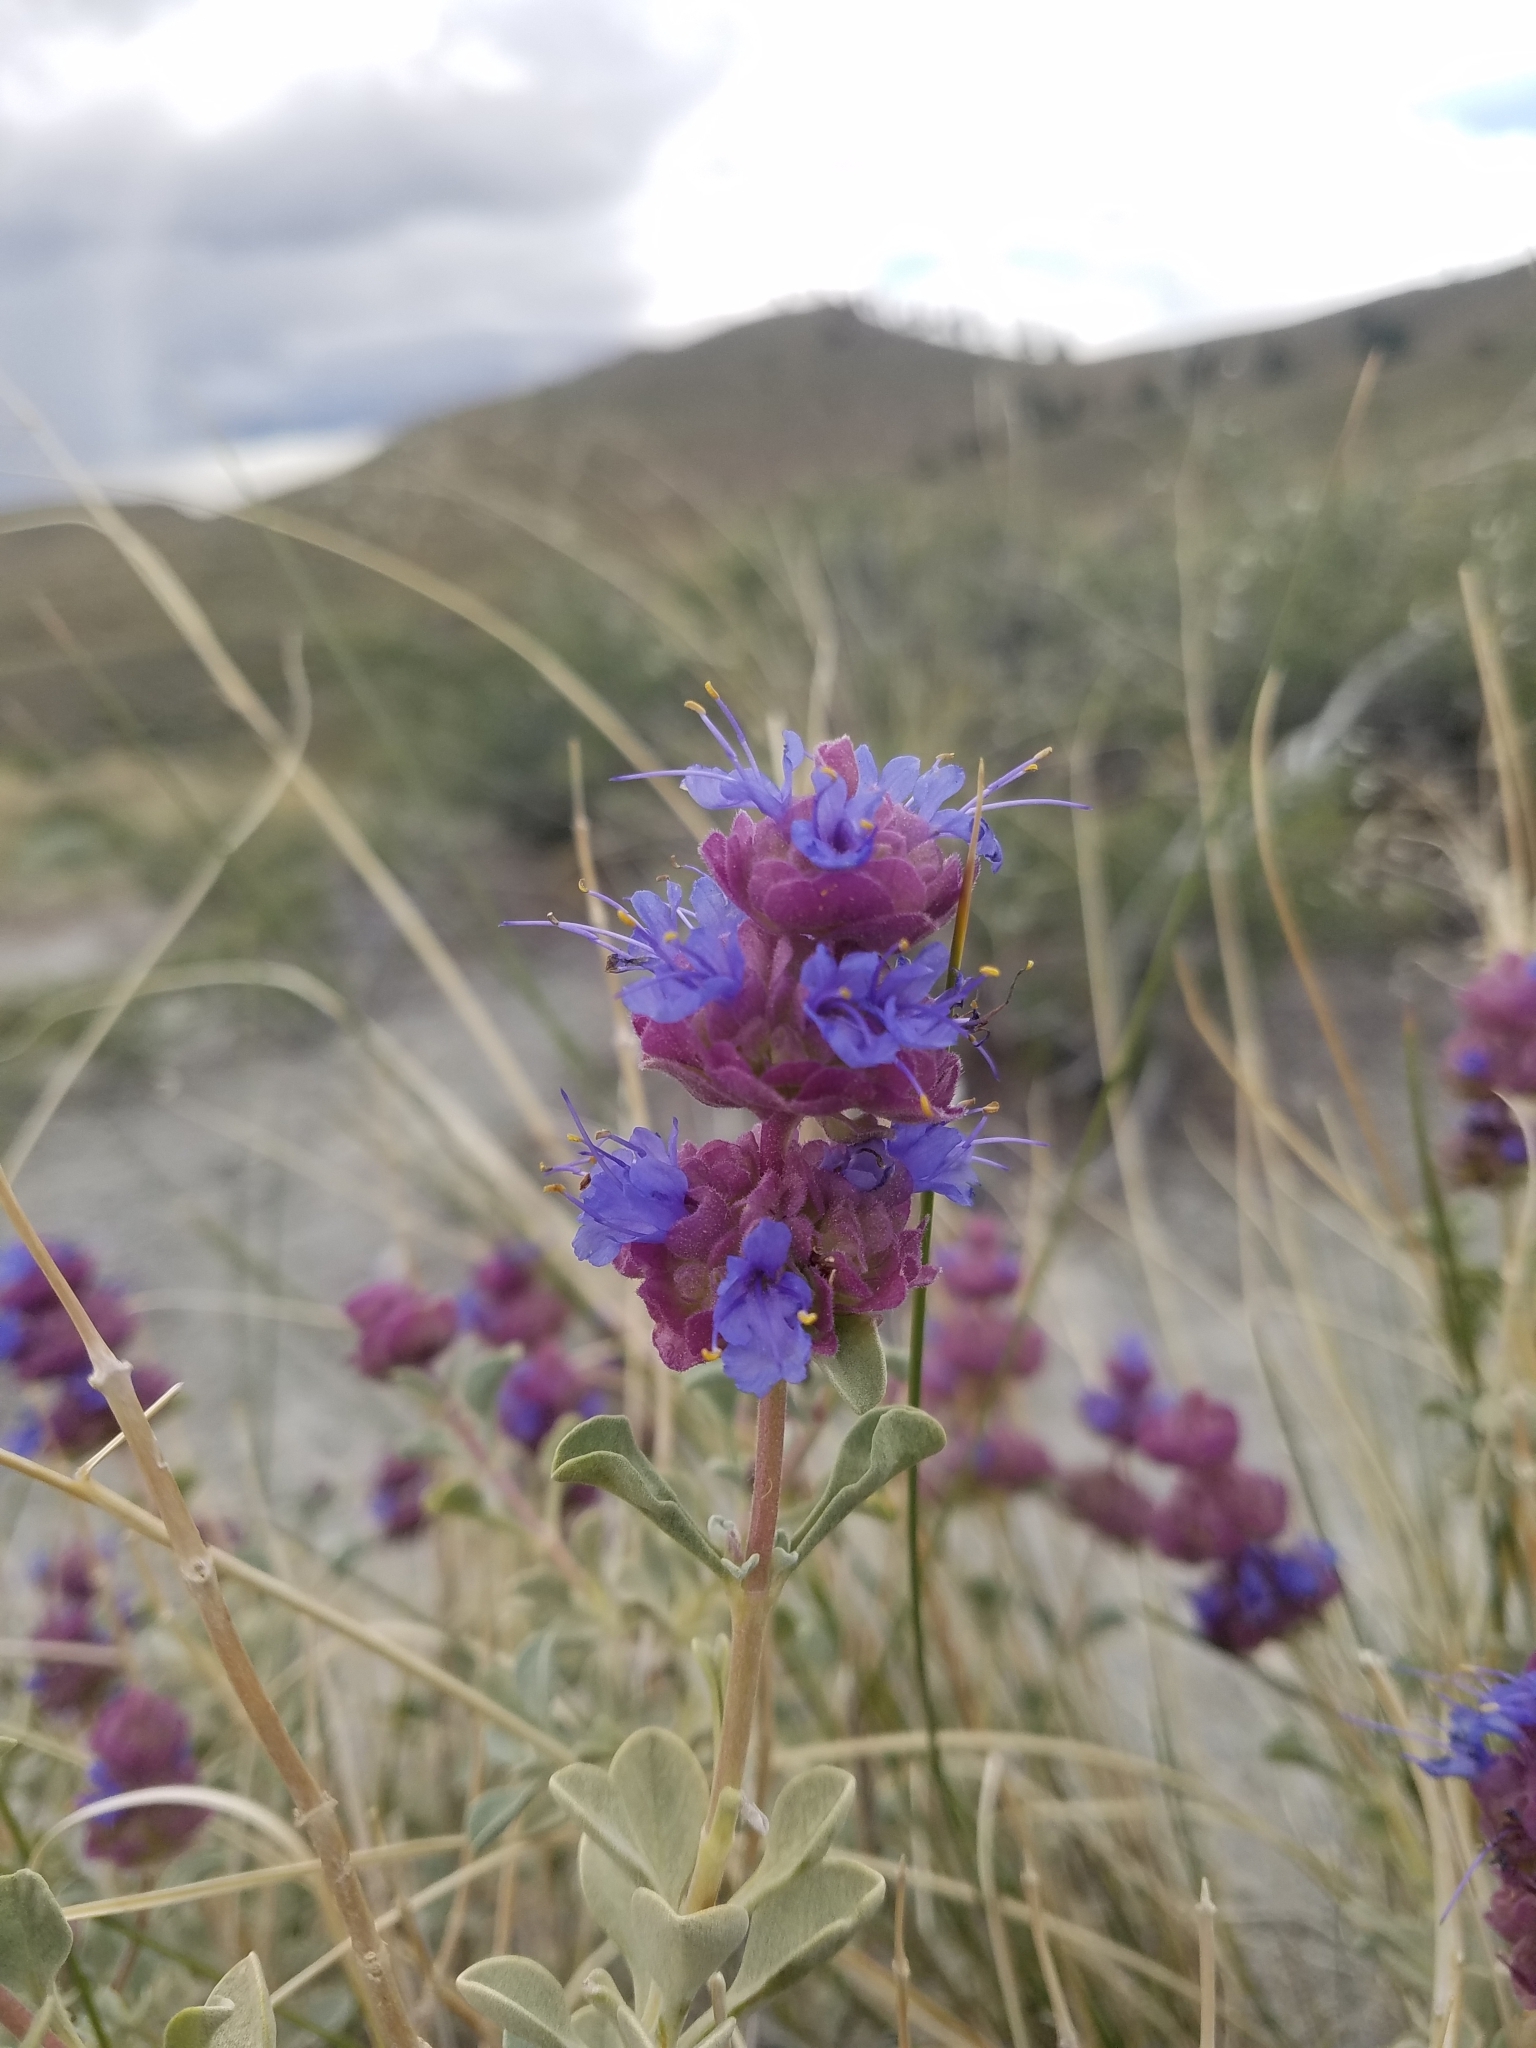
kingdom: Plantae
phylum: Tracheophyta
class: Magnoliopsida
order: Lamiales
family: Lamiaceae
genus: Salvia
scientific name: Salvia dorrii
